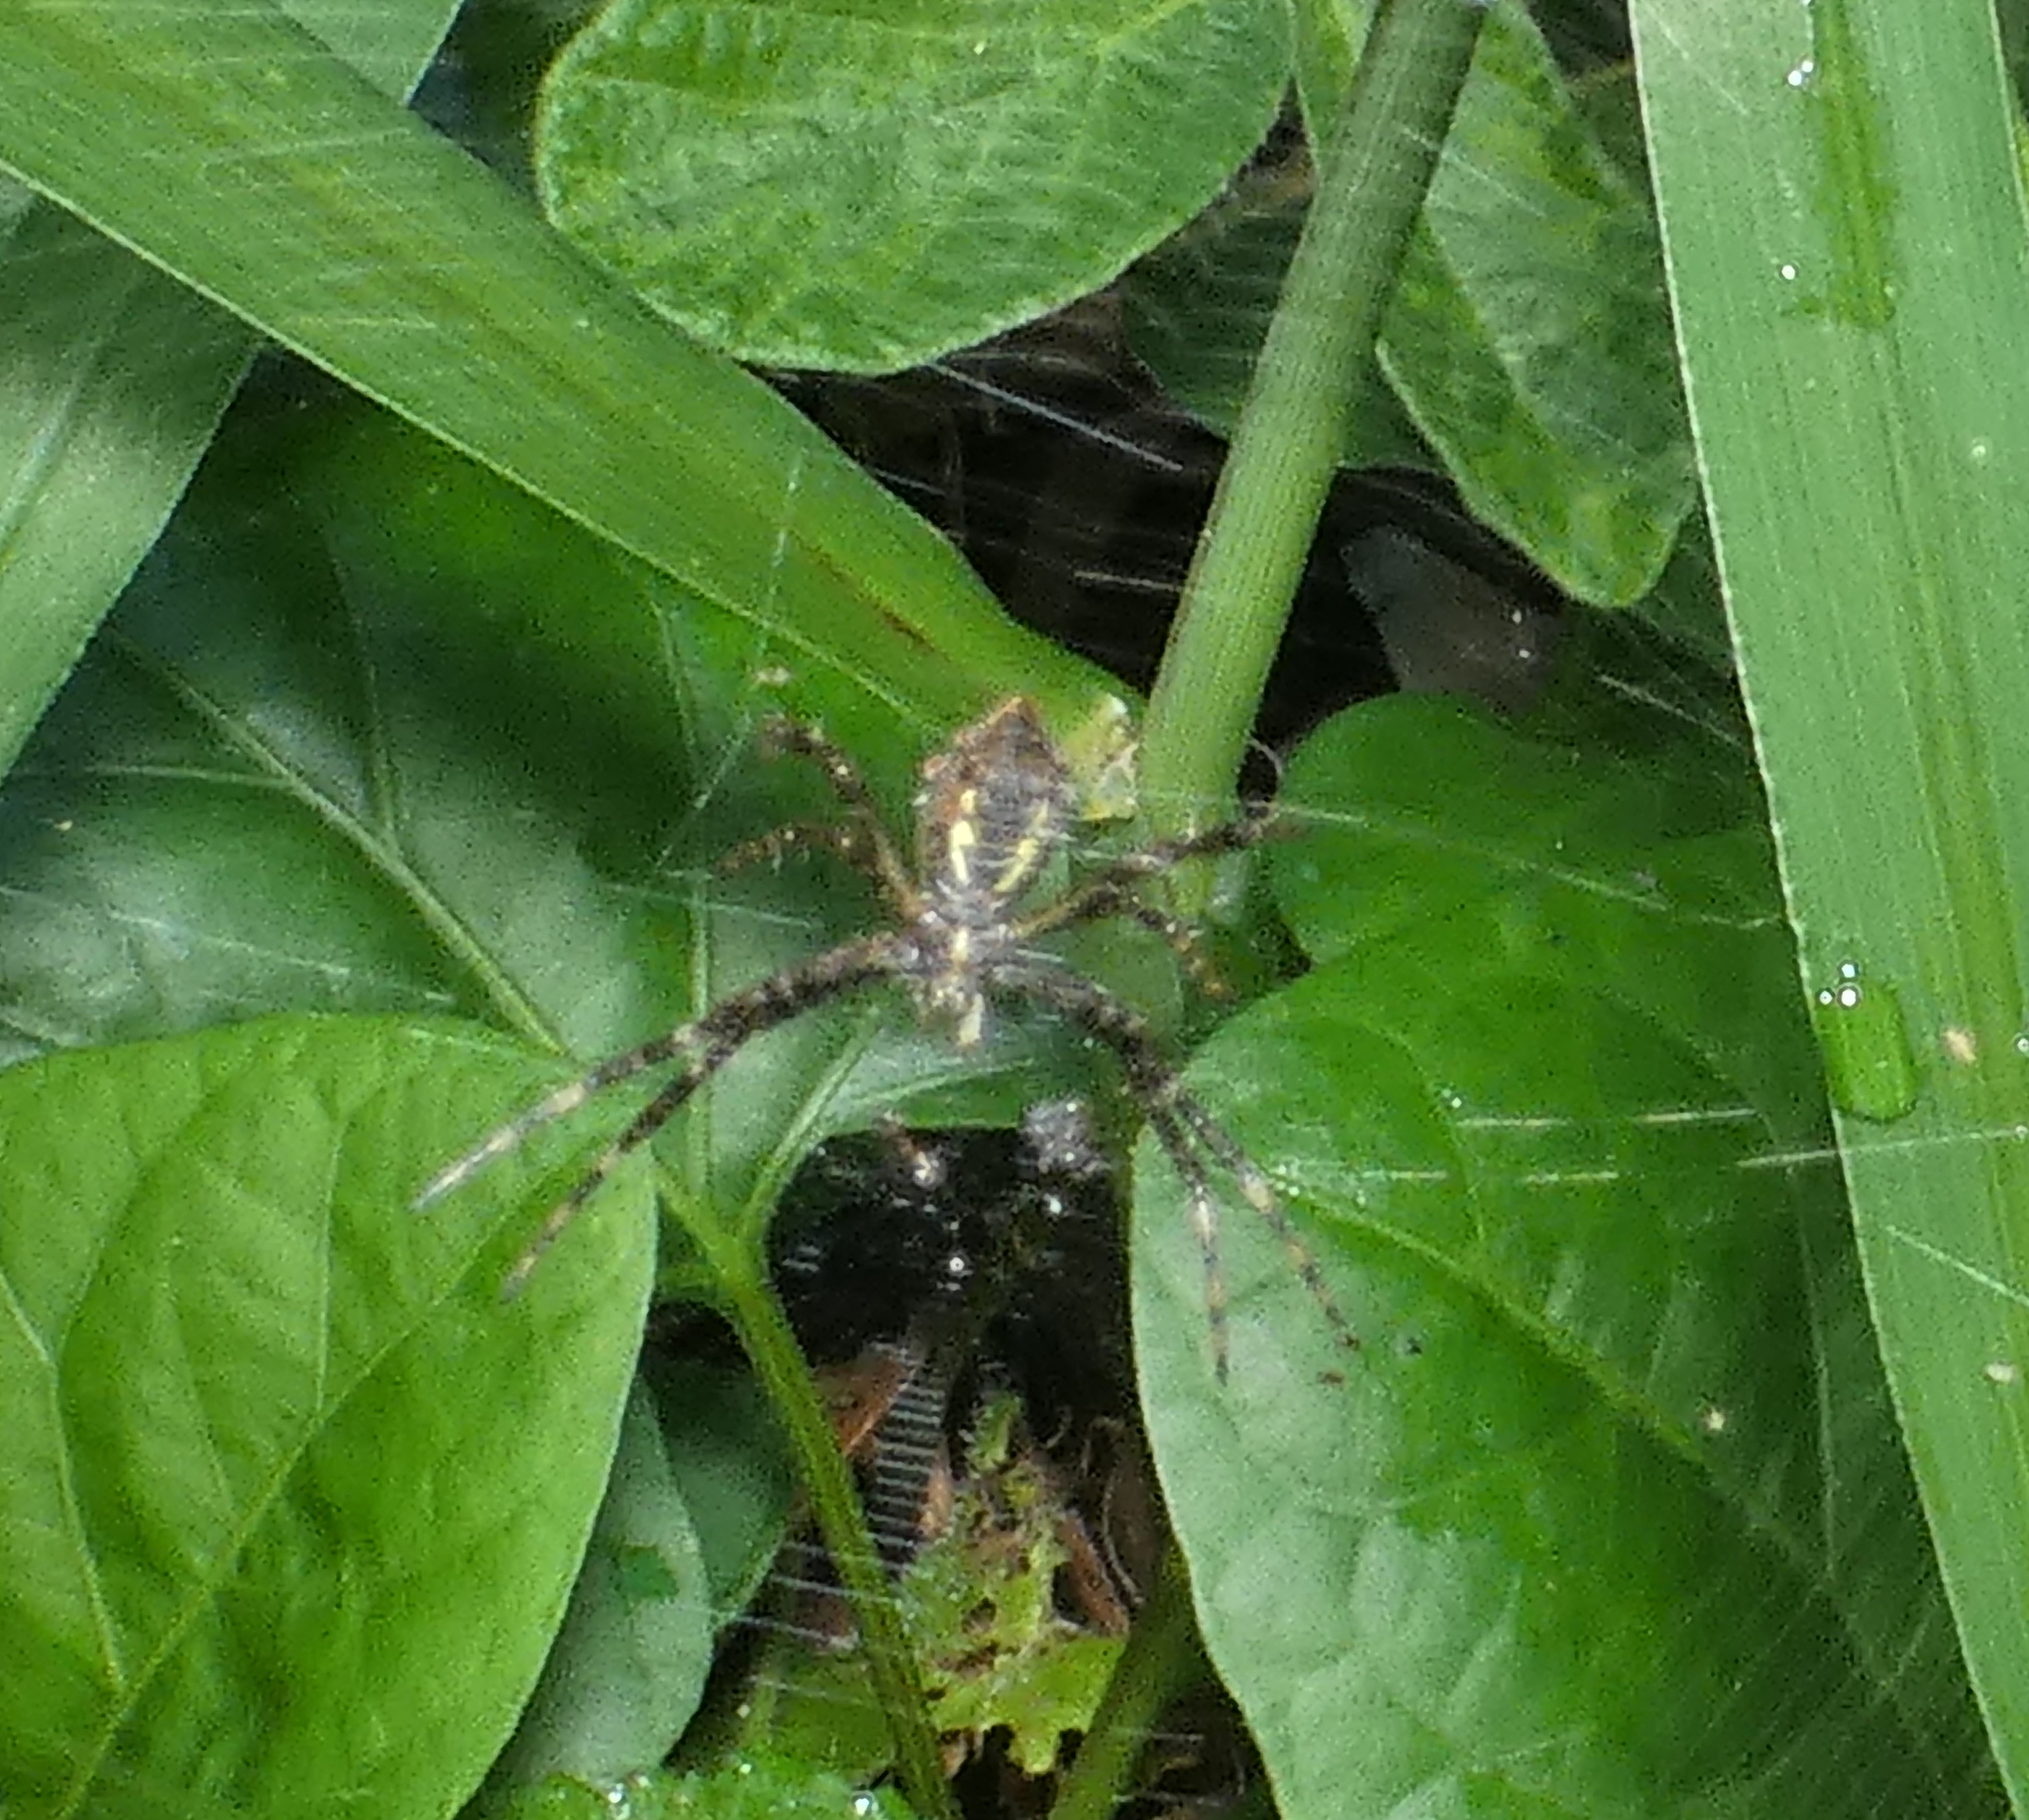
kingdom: Animalia
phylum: Arthropoda
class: Arachnida
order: Araneae
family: Araneidae
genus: Argiope
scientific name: Argiope argentata
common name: Orb weavers
